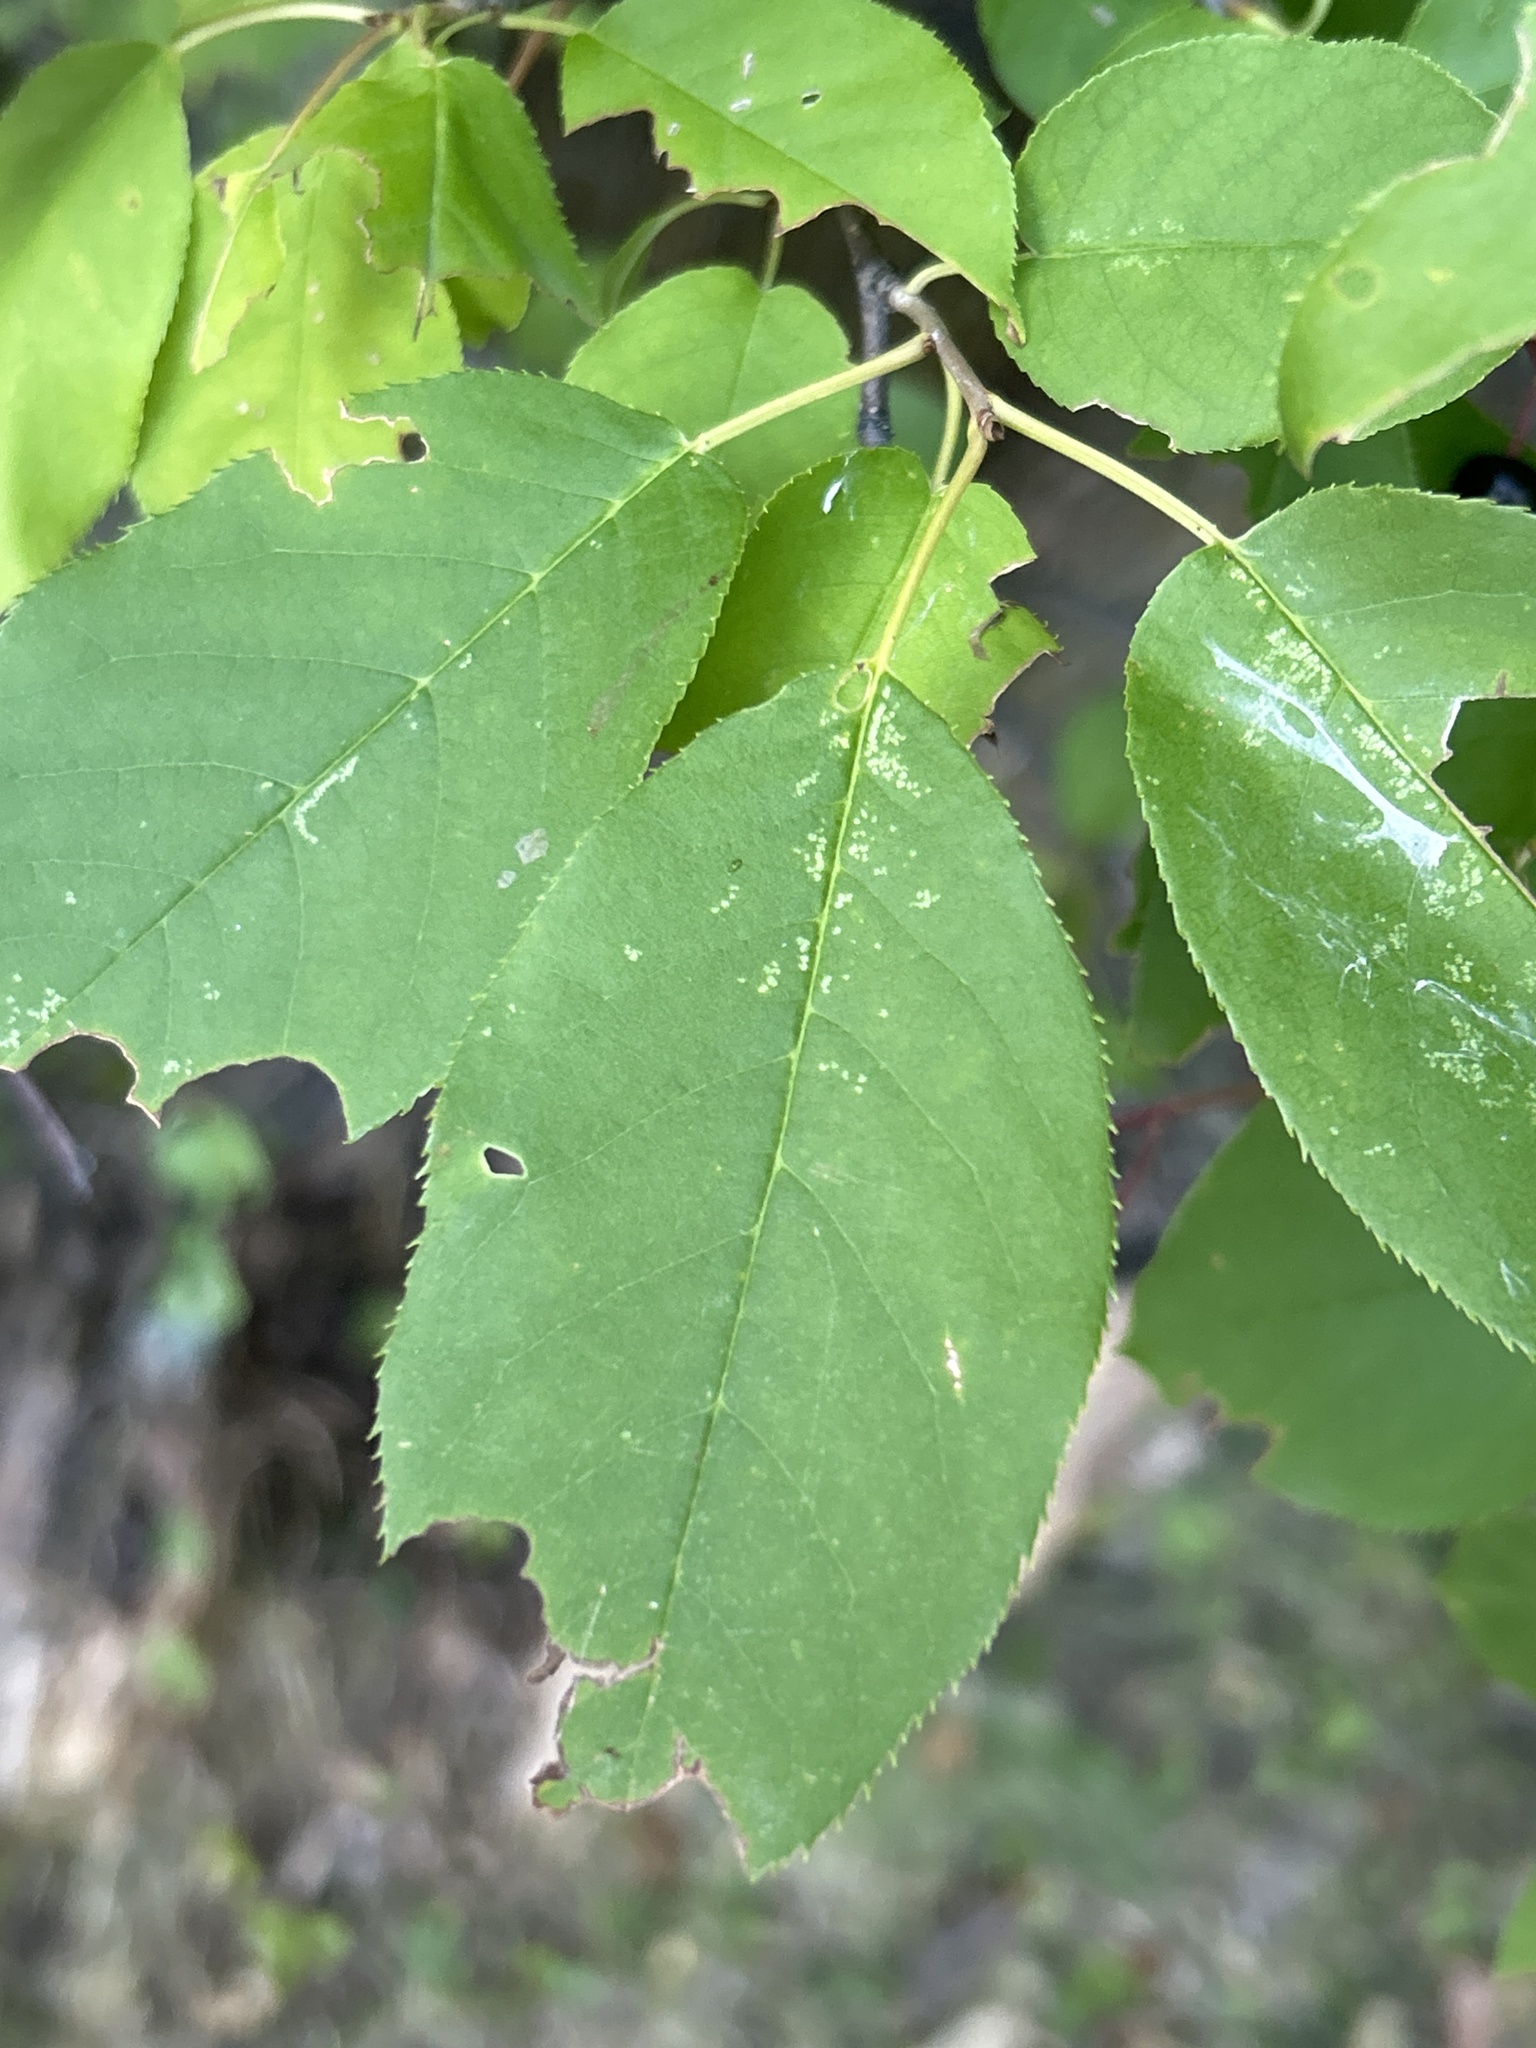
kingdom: Plantae
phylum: Tracheophyta
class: Magnoliopsida
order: Rosales
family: Rosaceae
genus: Prunus
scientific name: Prunus virginiana
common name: Chokecherry
